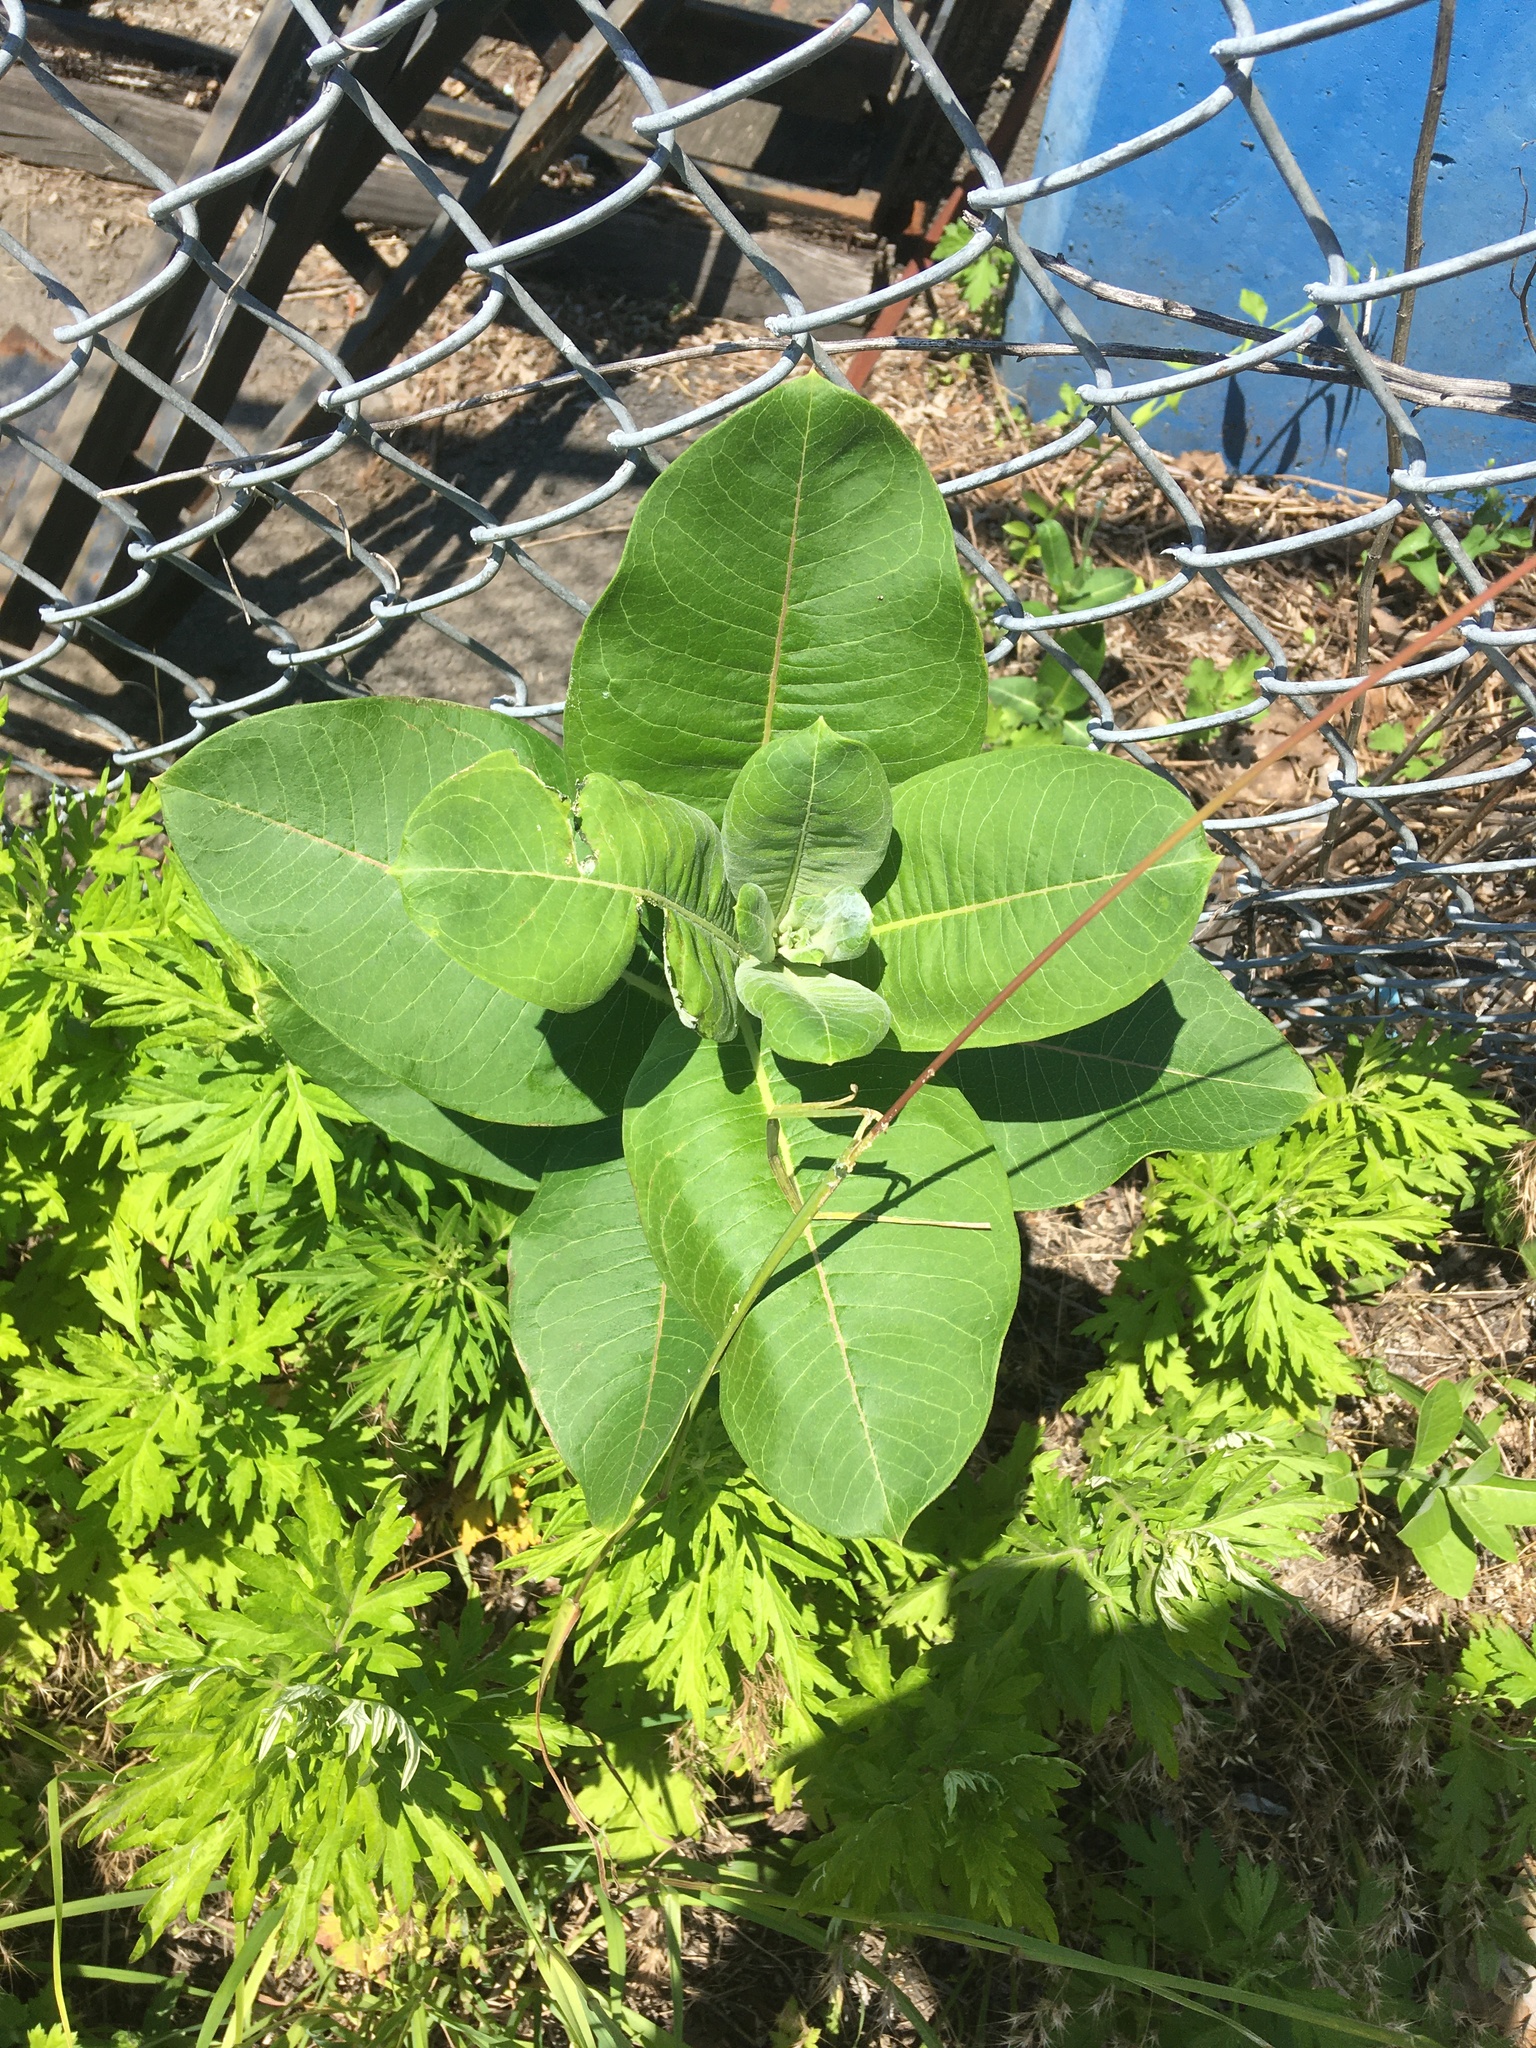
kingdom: Plantae
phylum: Tracheophyta
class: Magnoliopsida
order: Gentianales
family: Apocynaceae
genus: Asclepias
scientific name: Asclepias syriaca
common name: Common milkweed
